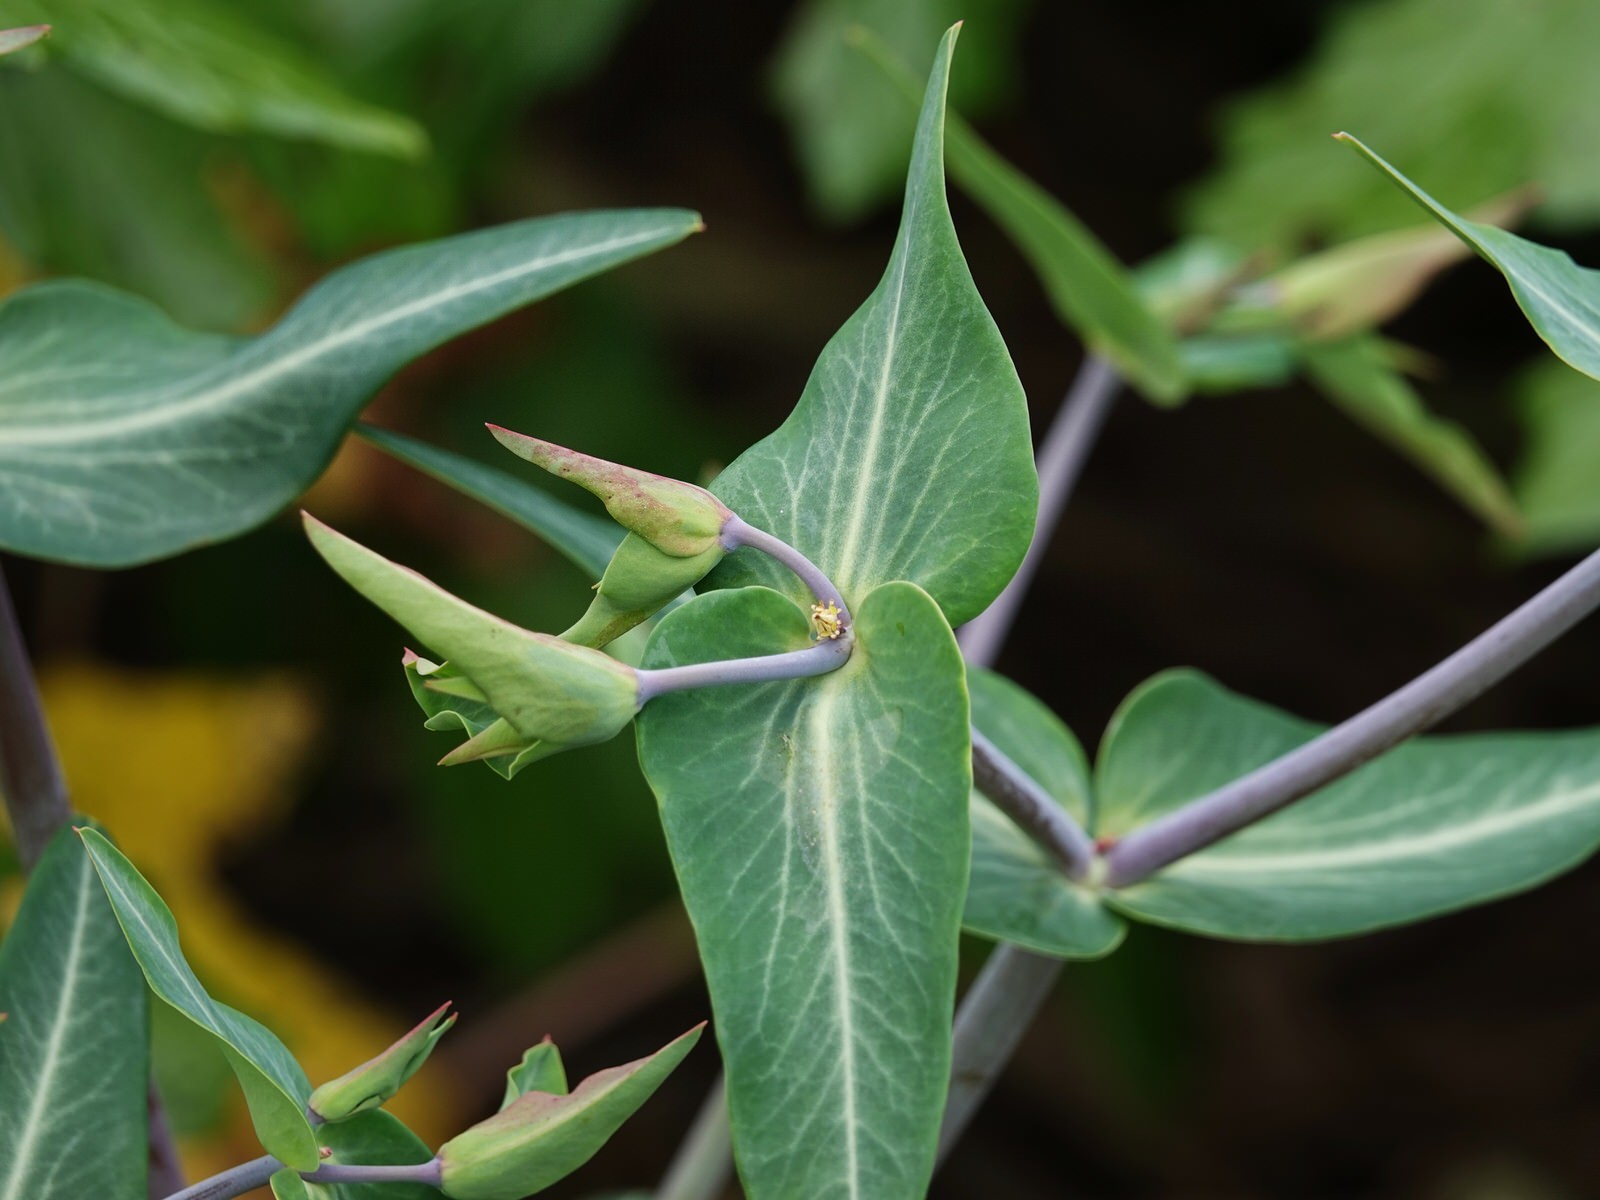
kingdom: Plantae
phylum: Tracheophyta
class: Magnoliopsida
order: Malpighiales
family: Euphorbiaceae
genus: Euphorbia
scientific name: Euphorbia lathyris
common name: Caper spurge
